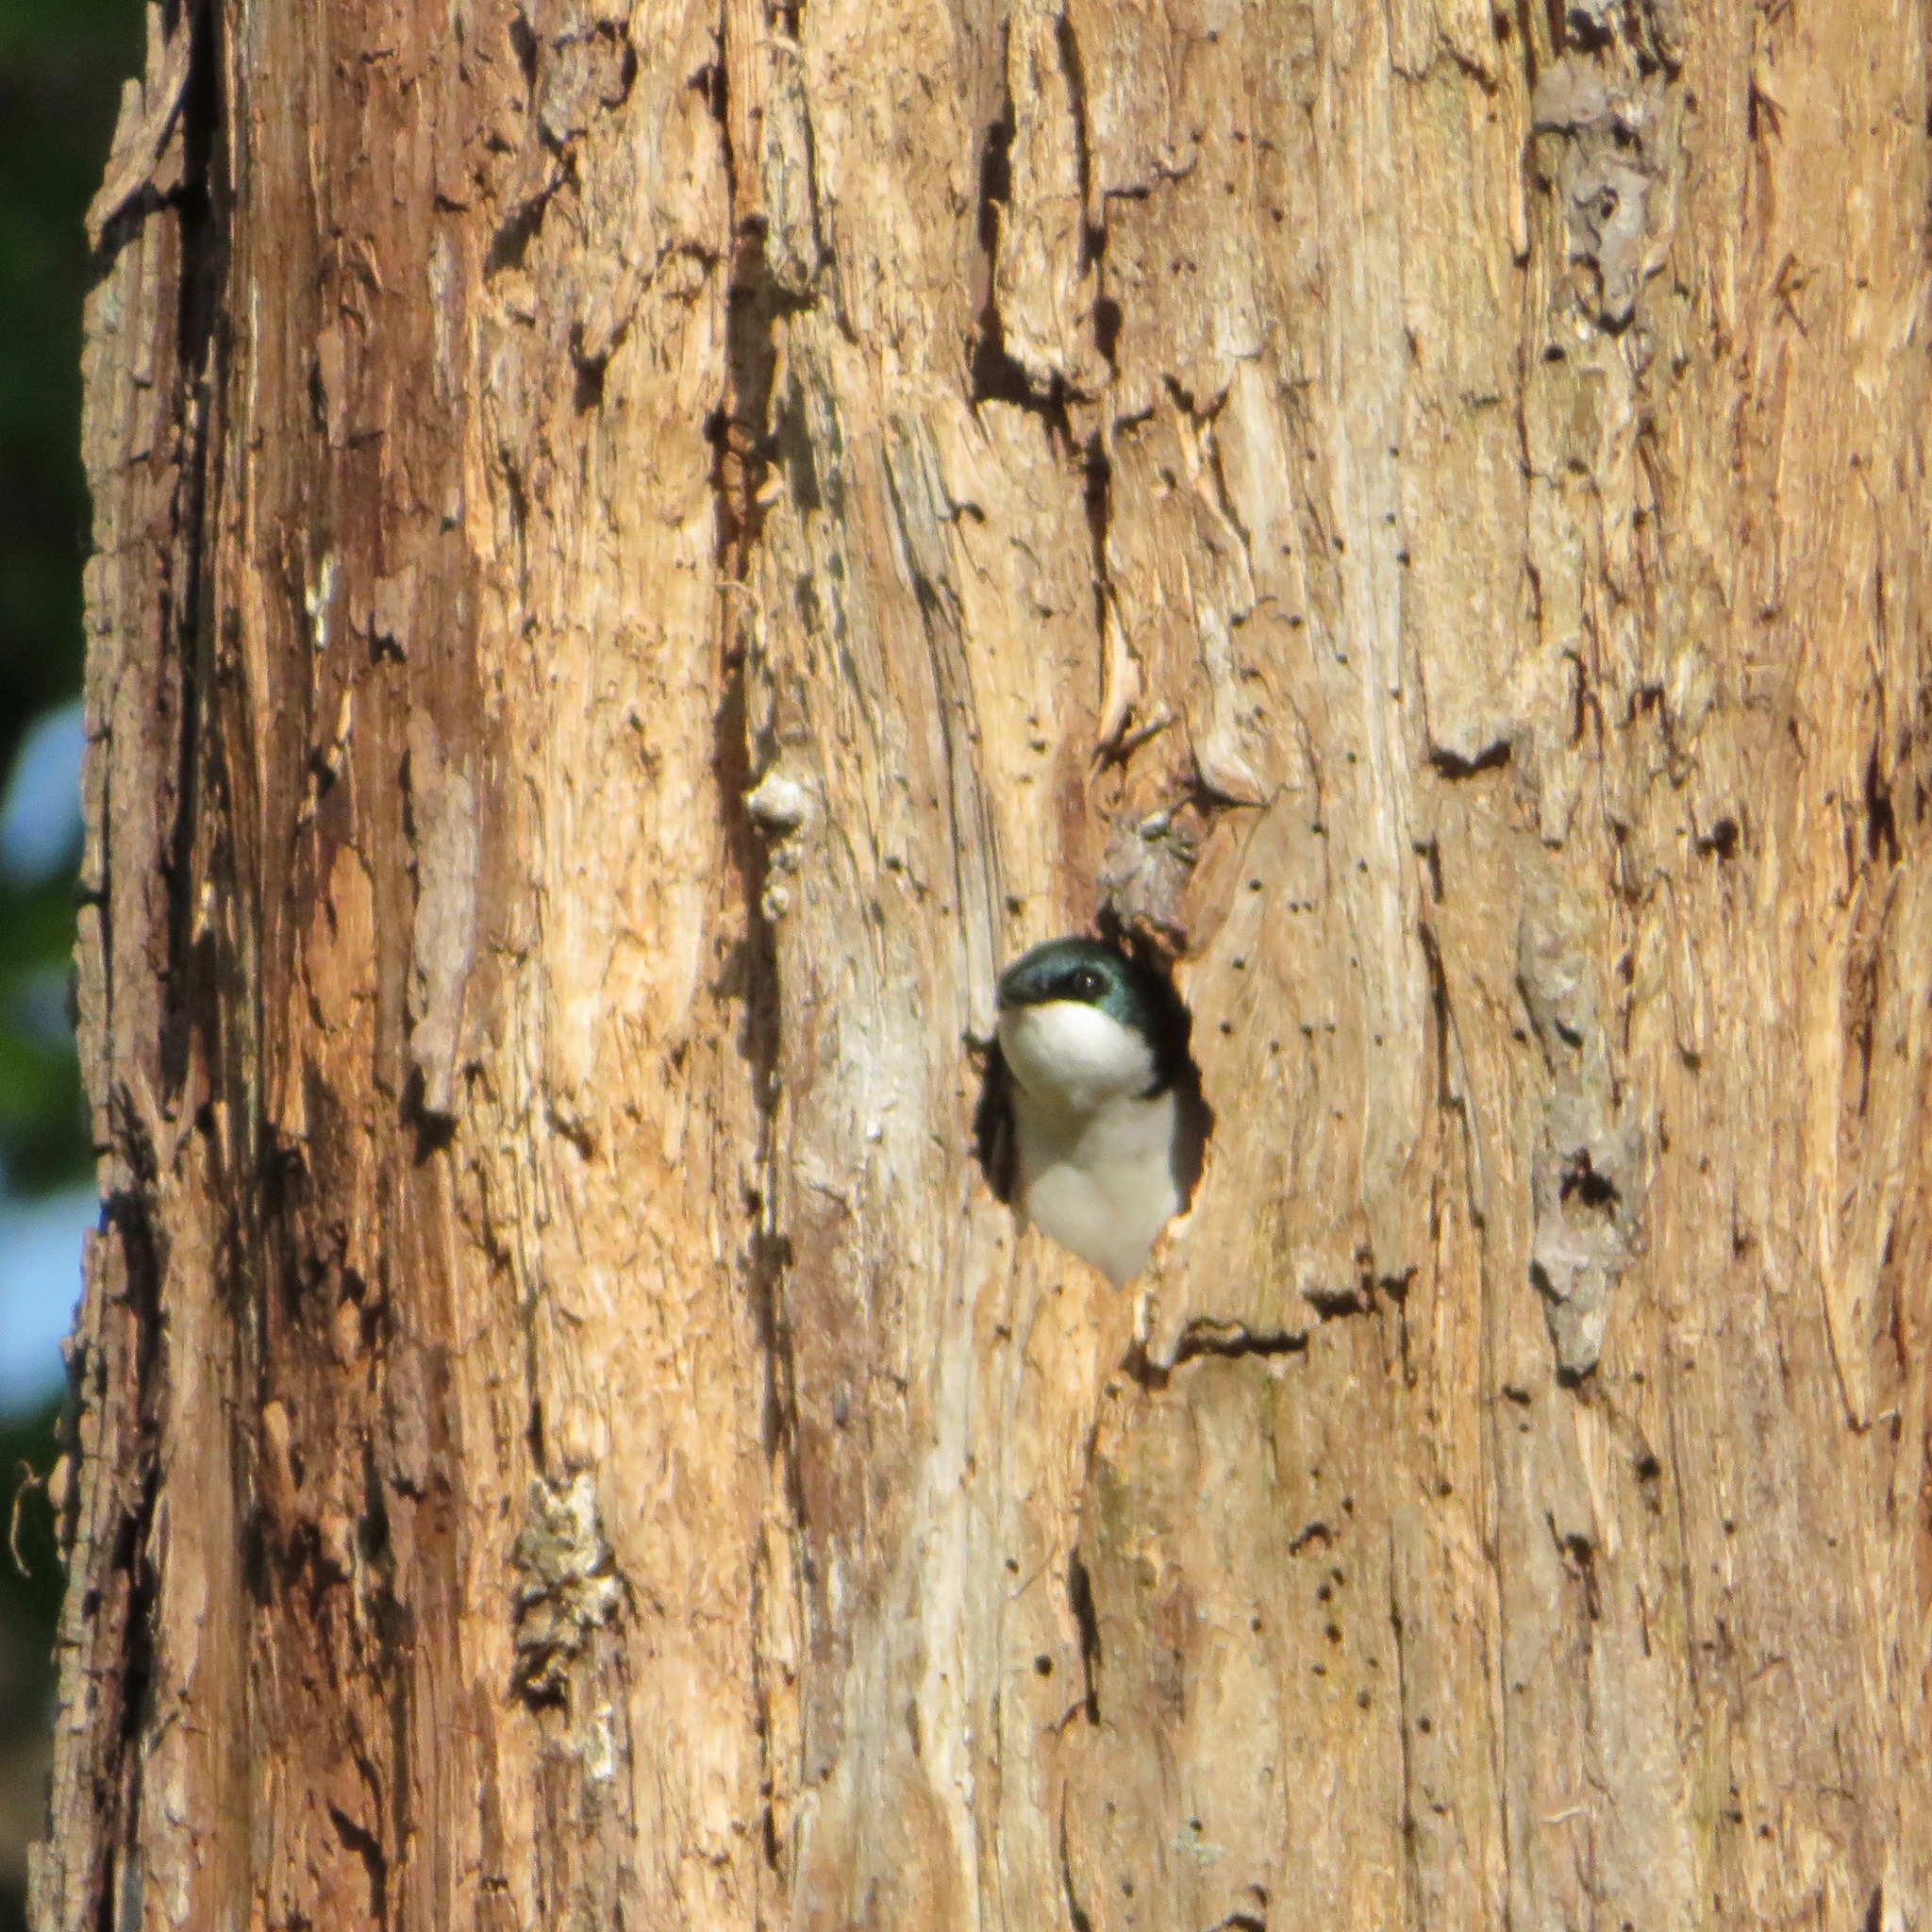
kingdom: Animalia
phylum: Chordata
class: Aves
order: Passeriformes
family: Hirundinidae
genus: Tachycineta
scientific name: Tachycineta bicolor
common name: Tree swallow
